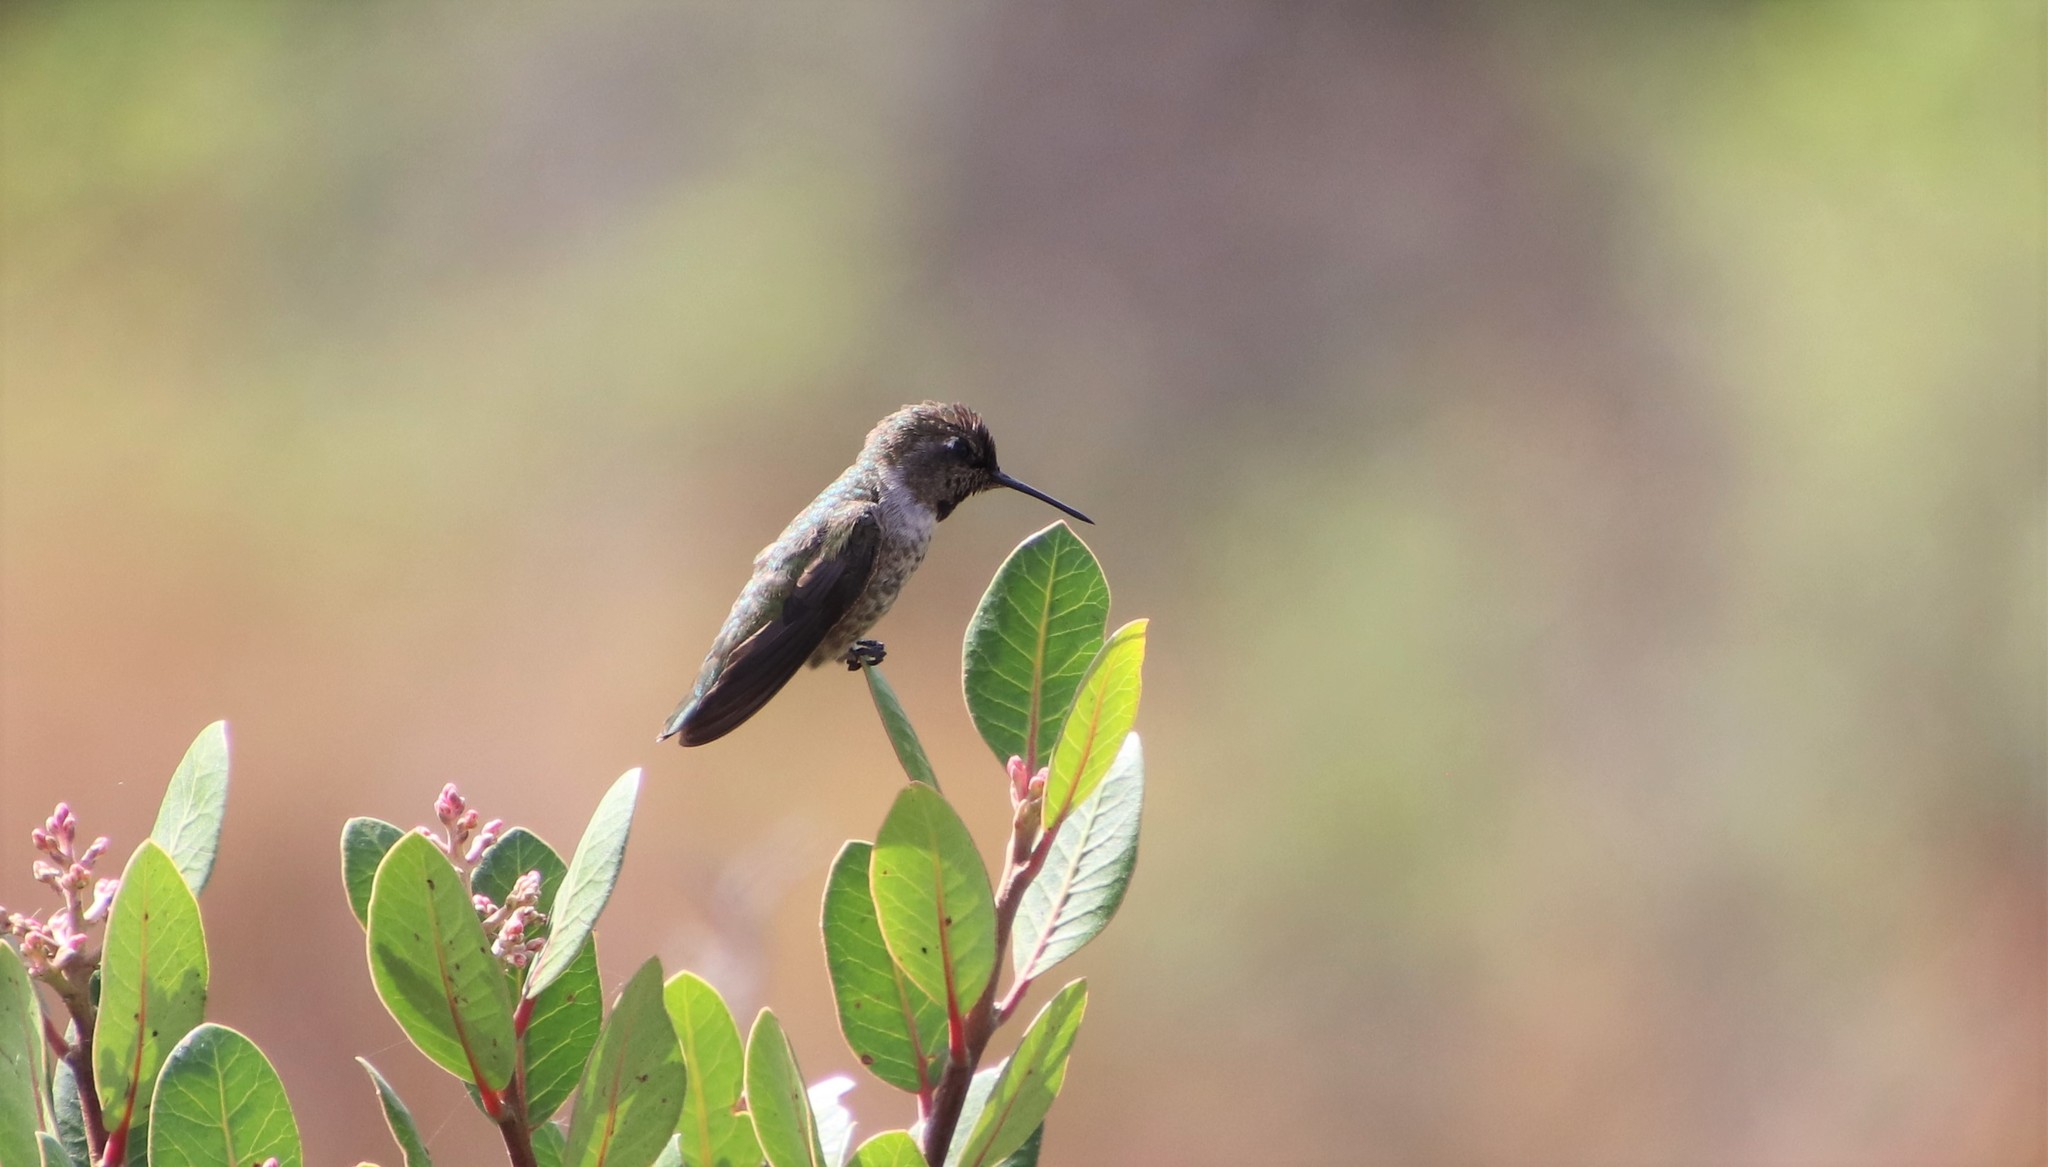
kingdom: Animalia
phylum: Chordata
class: Aves
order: Apodiformes
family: Trochilidae
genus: Calypte
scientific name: Calypte anna
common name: Anna's hummingbird
